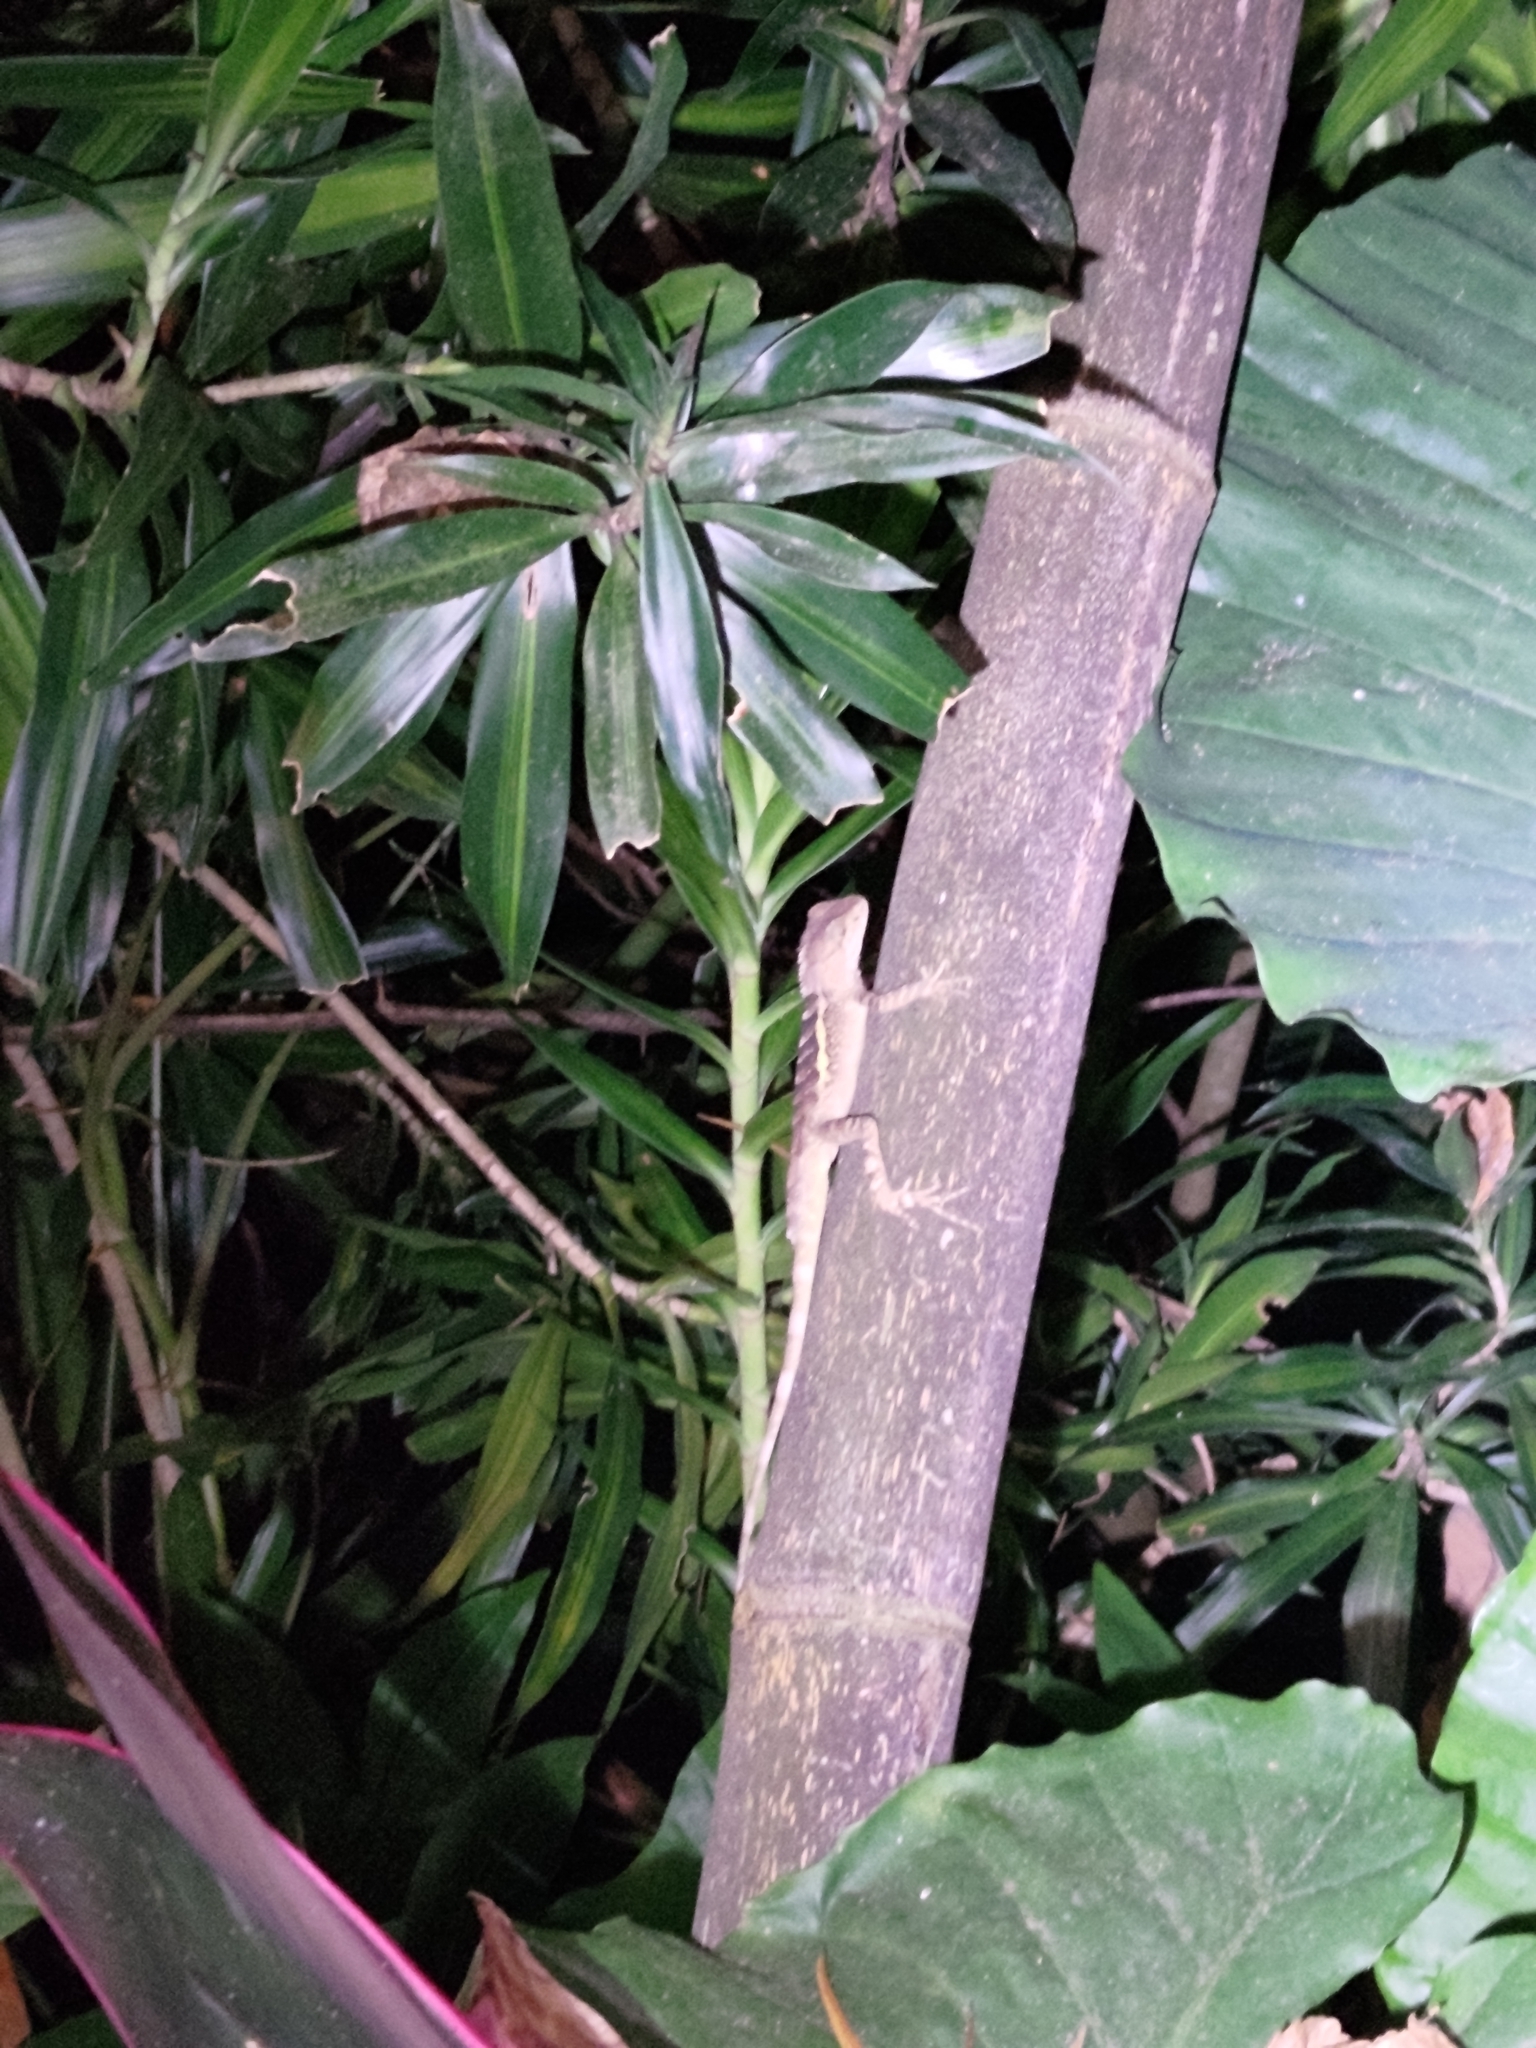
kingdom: Animalia
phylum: Chordata
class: Squamata
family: Agamidae
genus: Diploderma
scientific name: Diploderma swinhonis
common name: Taiwan japalure
